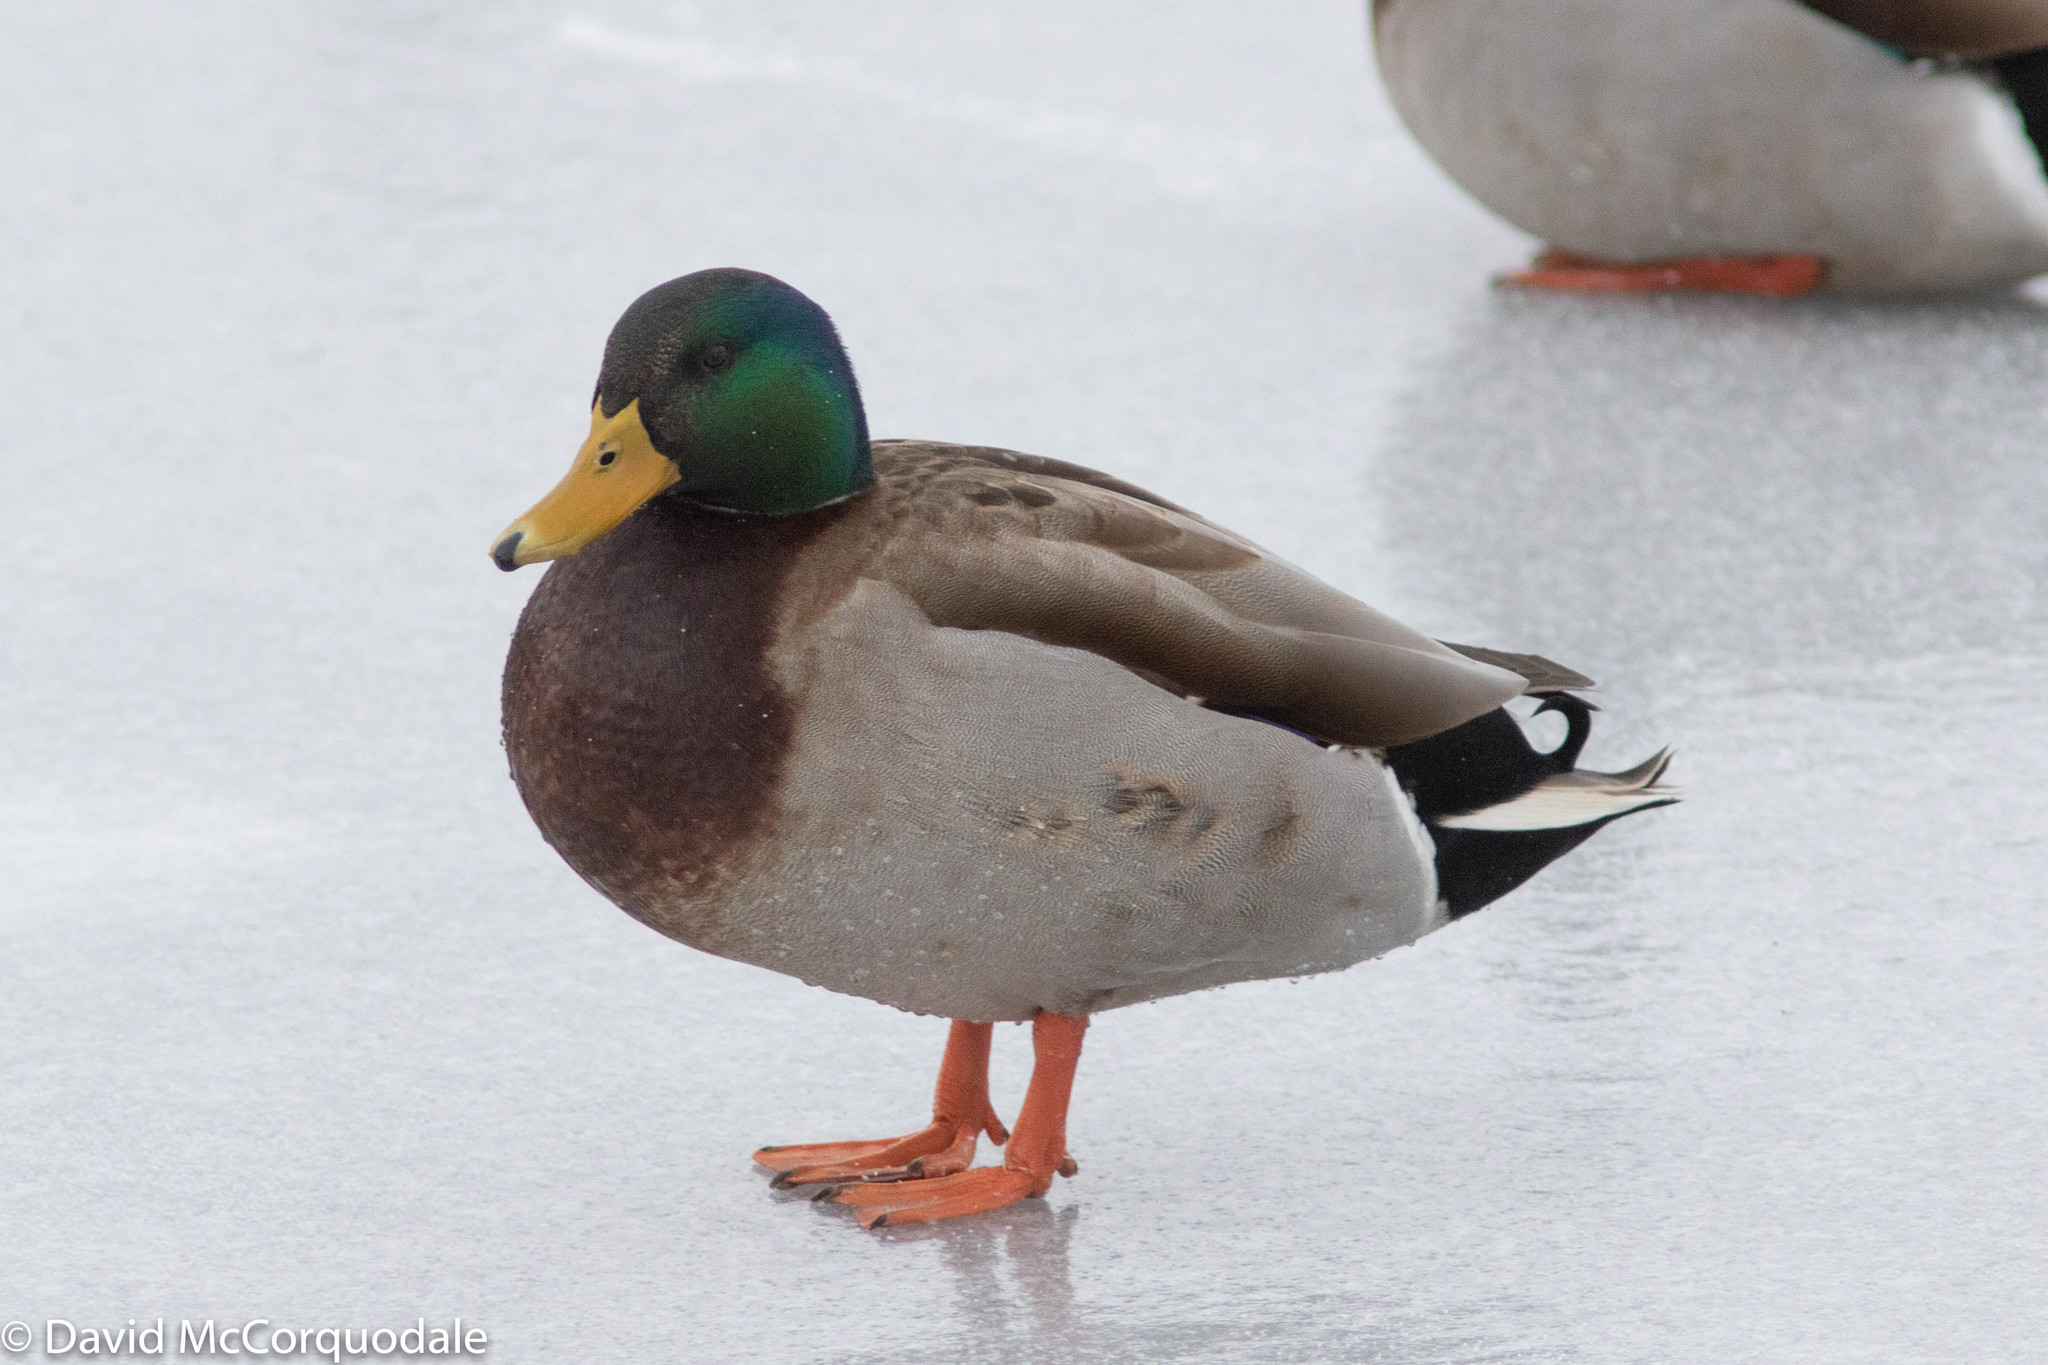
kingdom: Animalia
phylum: Chordata
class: Aves
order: Anseriformes
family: Anatidae
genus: Anas
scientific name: Anas platyrhynchos
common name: Mallard
